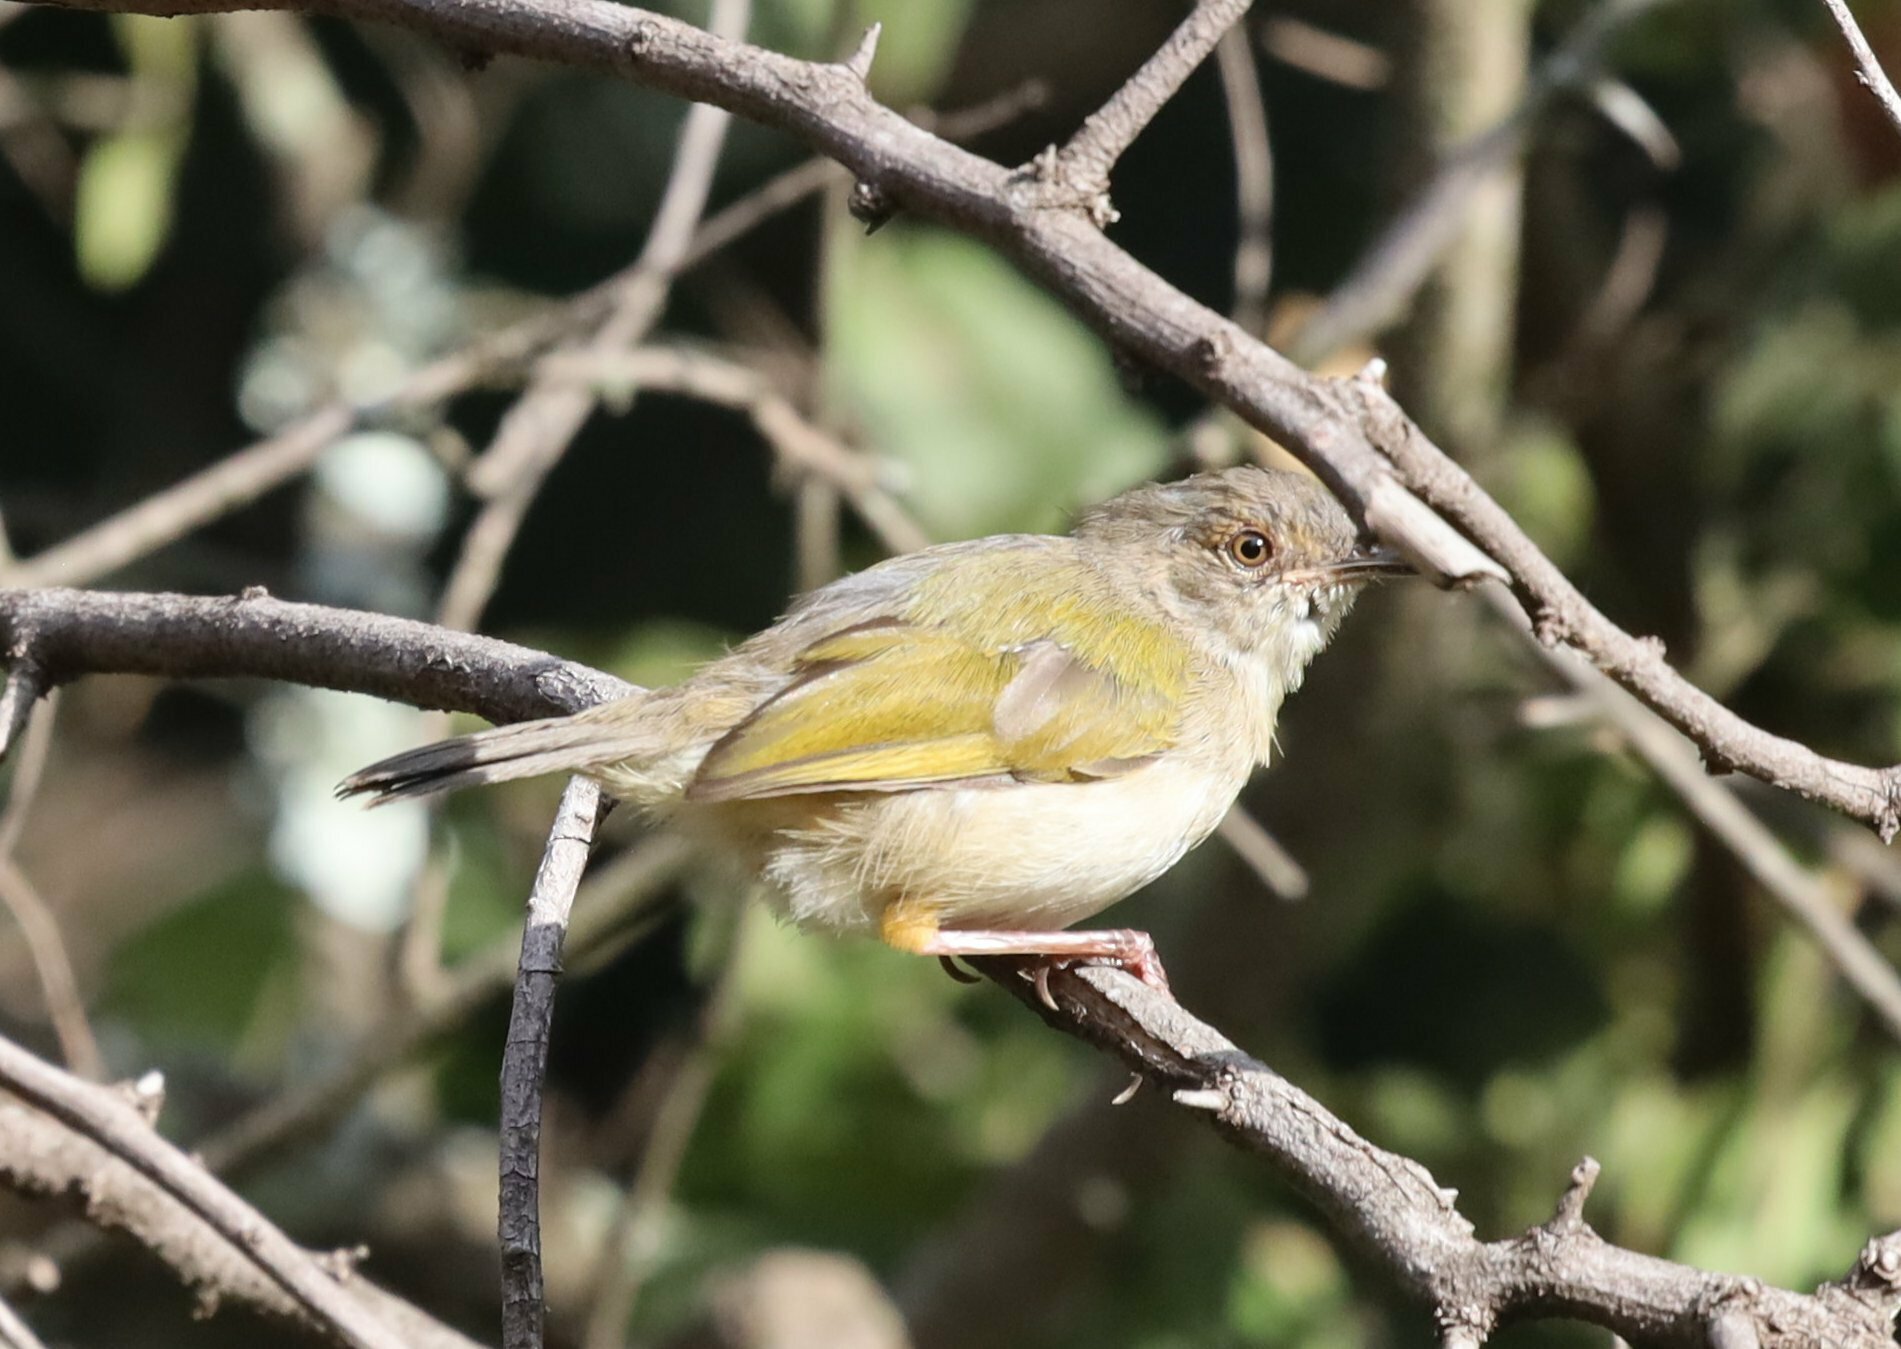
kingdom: Animalia
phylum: Chordata
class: Aves
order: Passeriformes
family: Cisticolidae
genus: Camaroptera
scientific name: Camaroptera brachyura
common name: Green-backed camaroptera
